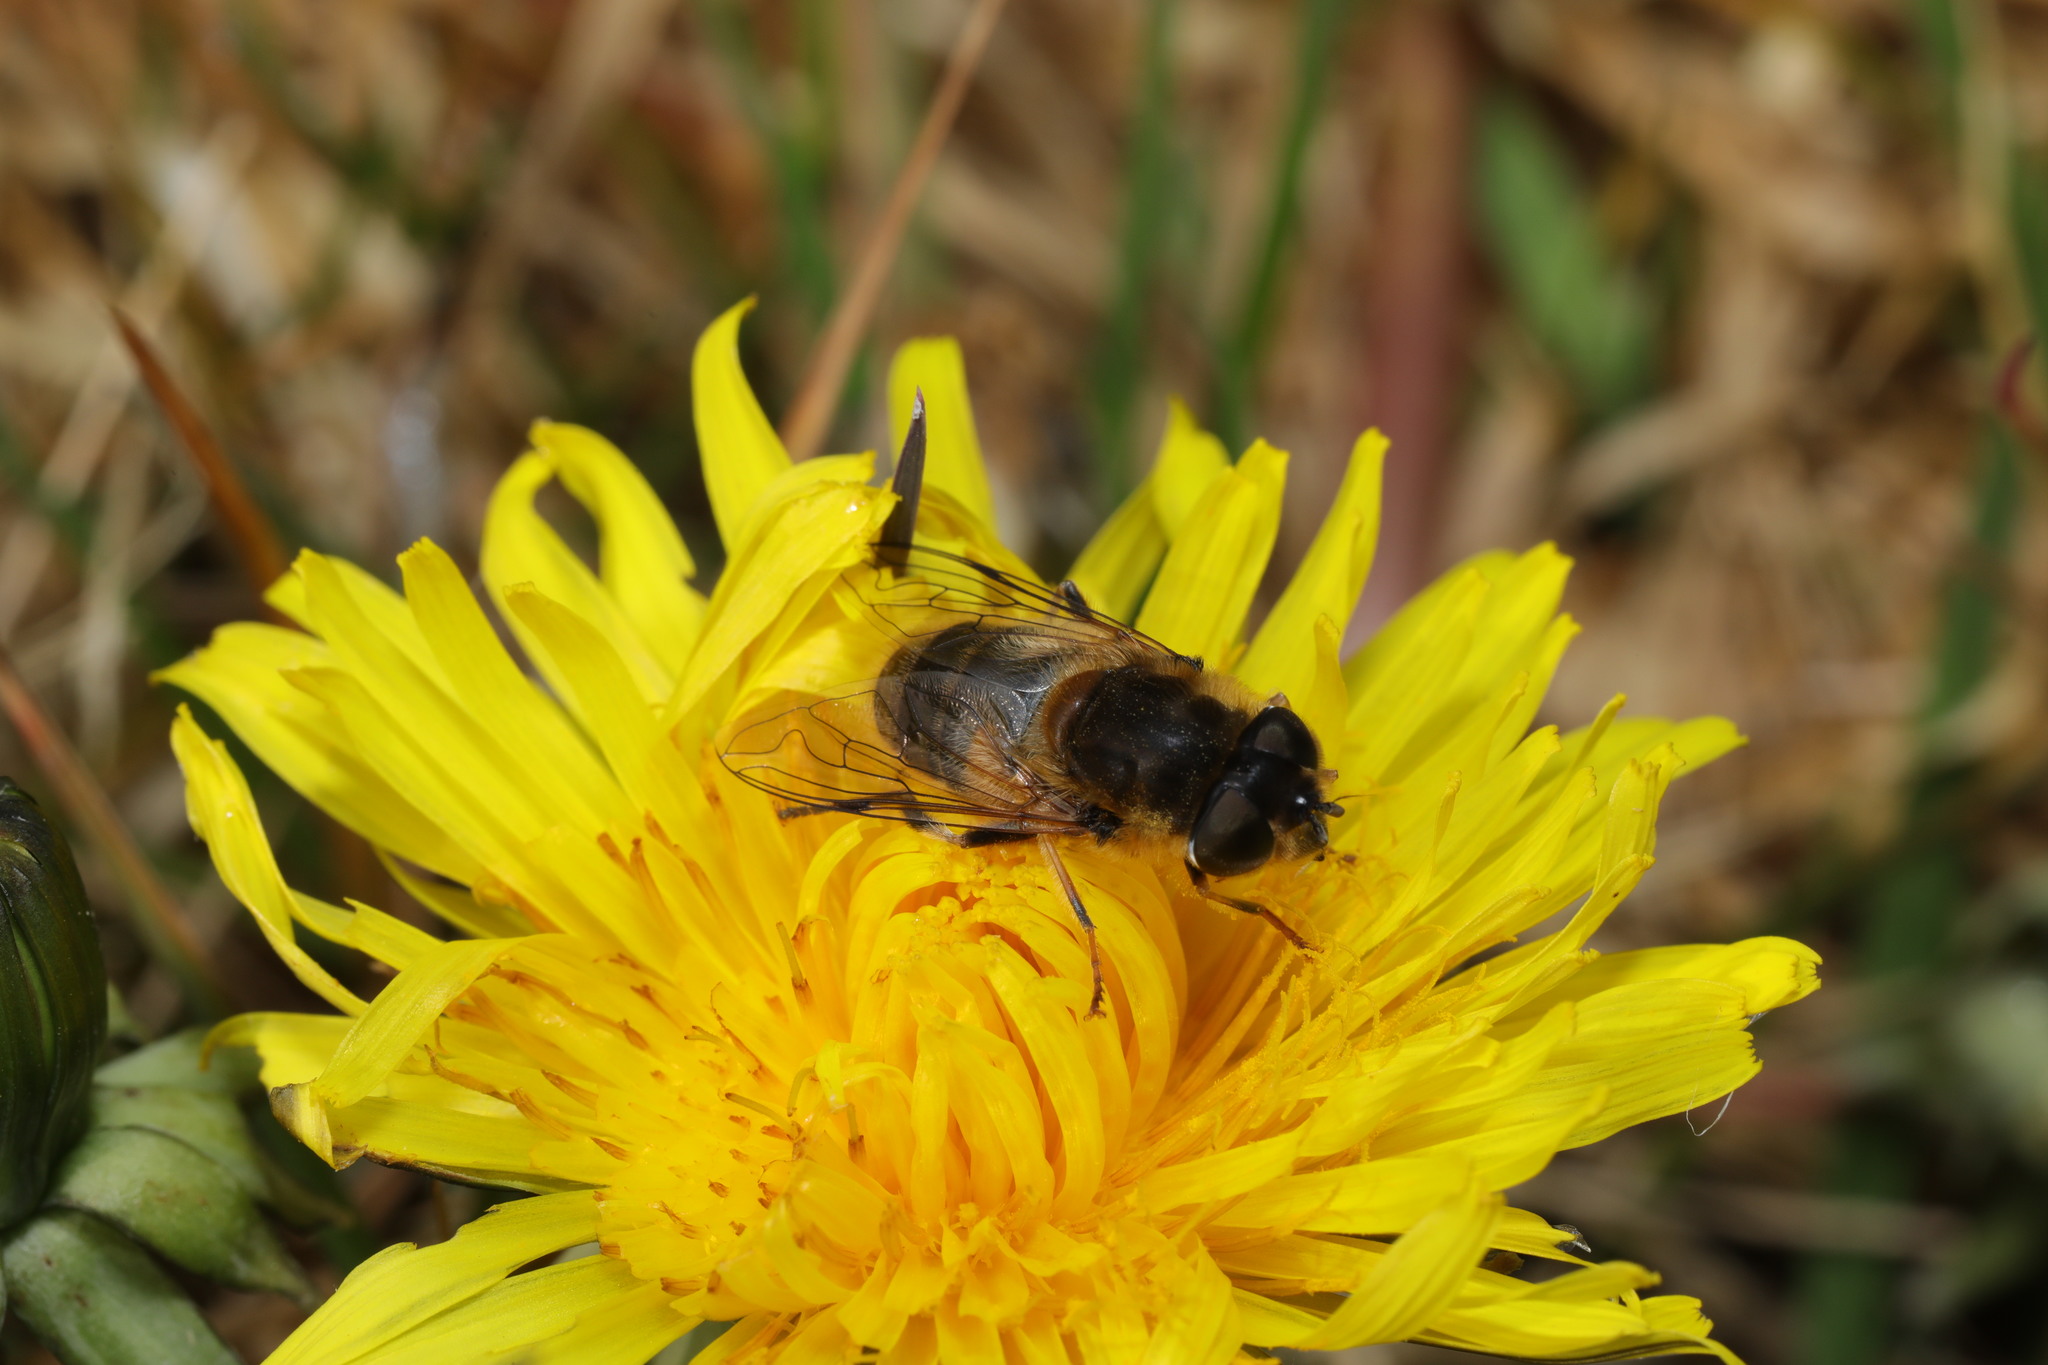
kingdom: Animalia
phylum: Arthropoda
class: Insecta
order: Diptera
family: Syrphidae
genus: Eristalis
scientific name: Eristalis pertinax
